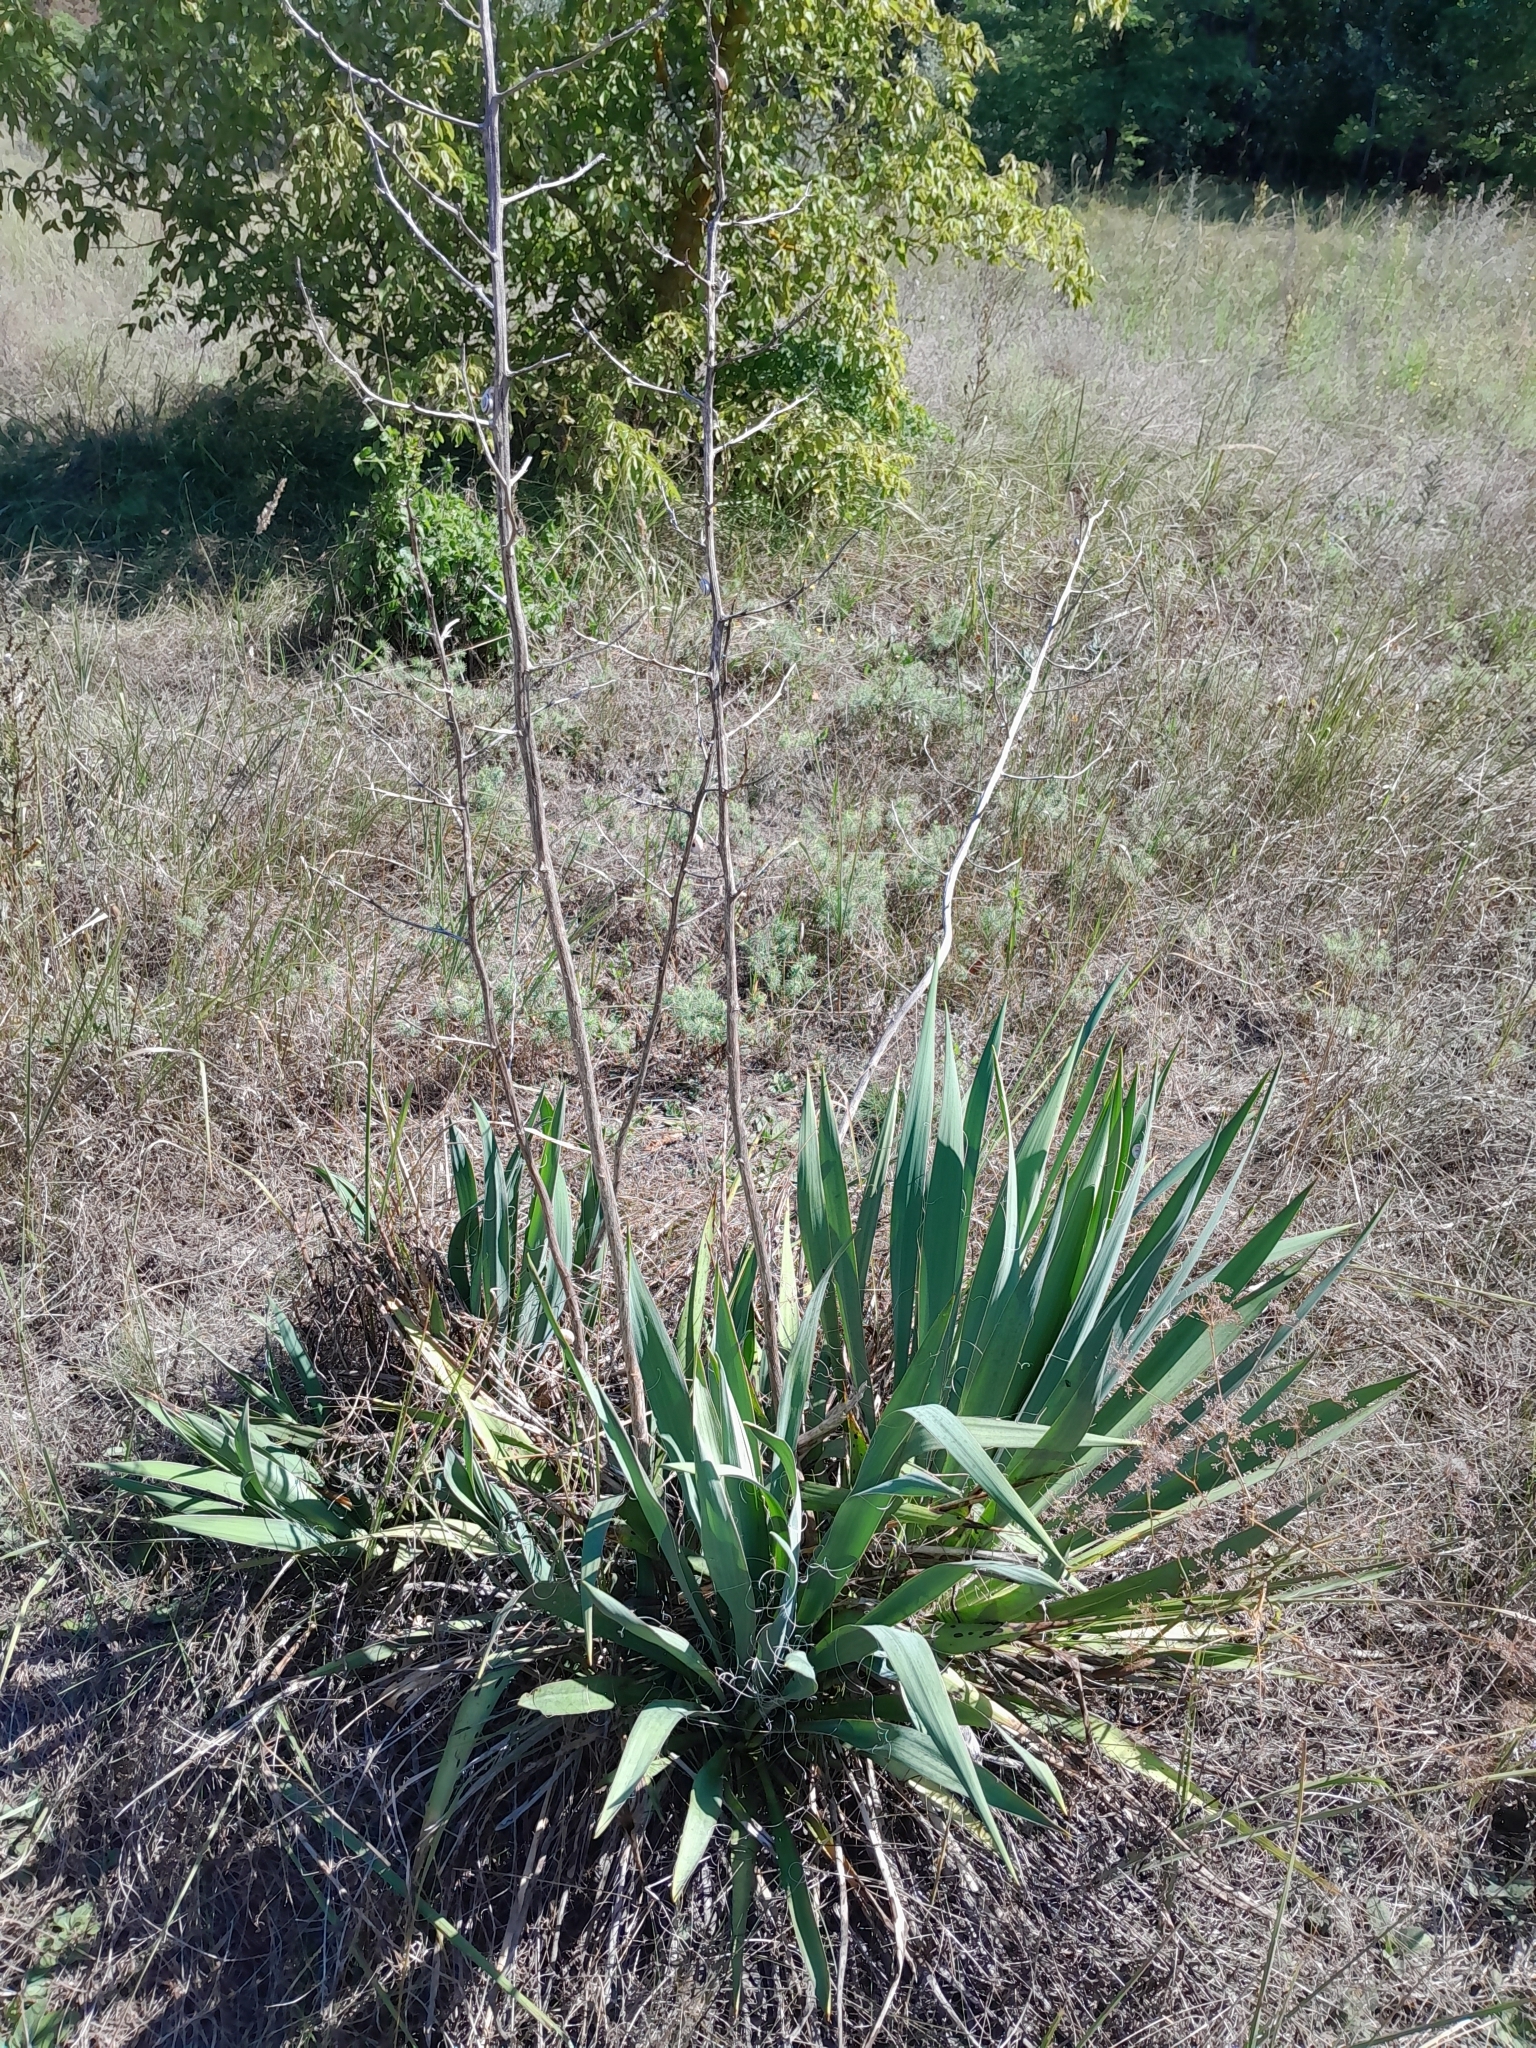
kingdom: Plantae
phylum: Tracheophyta
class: Liliopsida
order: Asparagales
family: Asparagaceae
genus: Yucca
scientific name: Yucca filamentosa
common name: Adam's-needle
